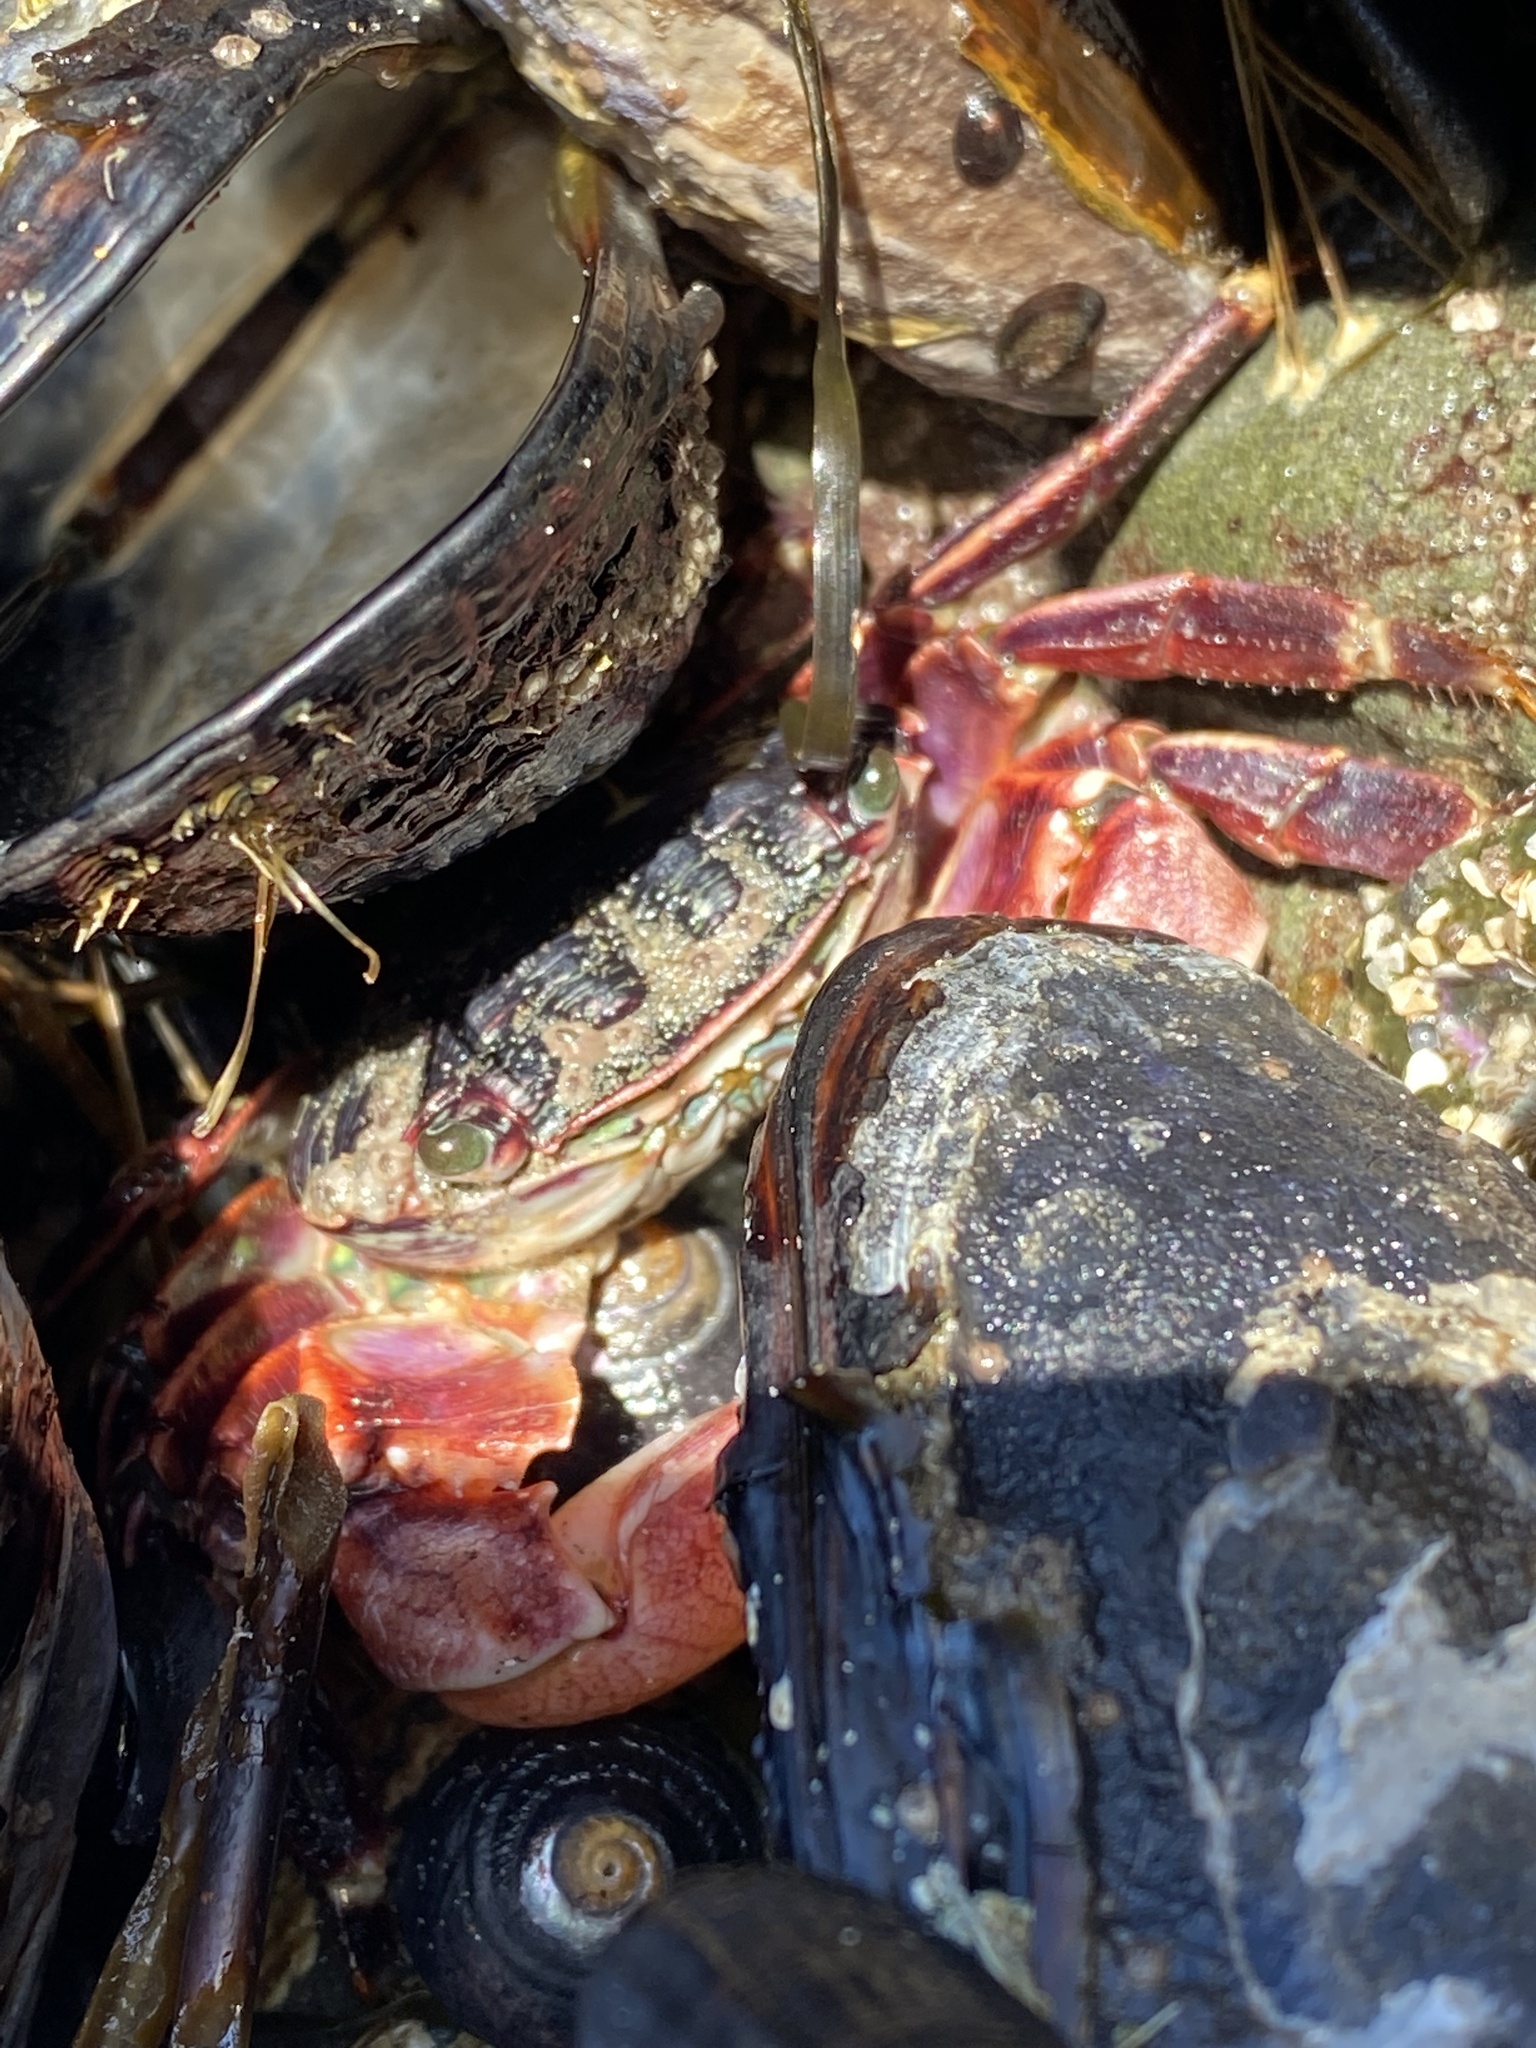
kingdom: Animalia
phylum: Arthropoda
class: Malacostraca
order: Decapoda
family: Grapsidae
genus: Pachygrapsus
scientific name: Pachygrapsus crassipes
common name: Striped shore crab
